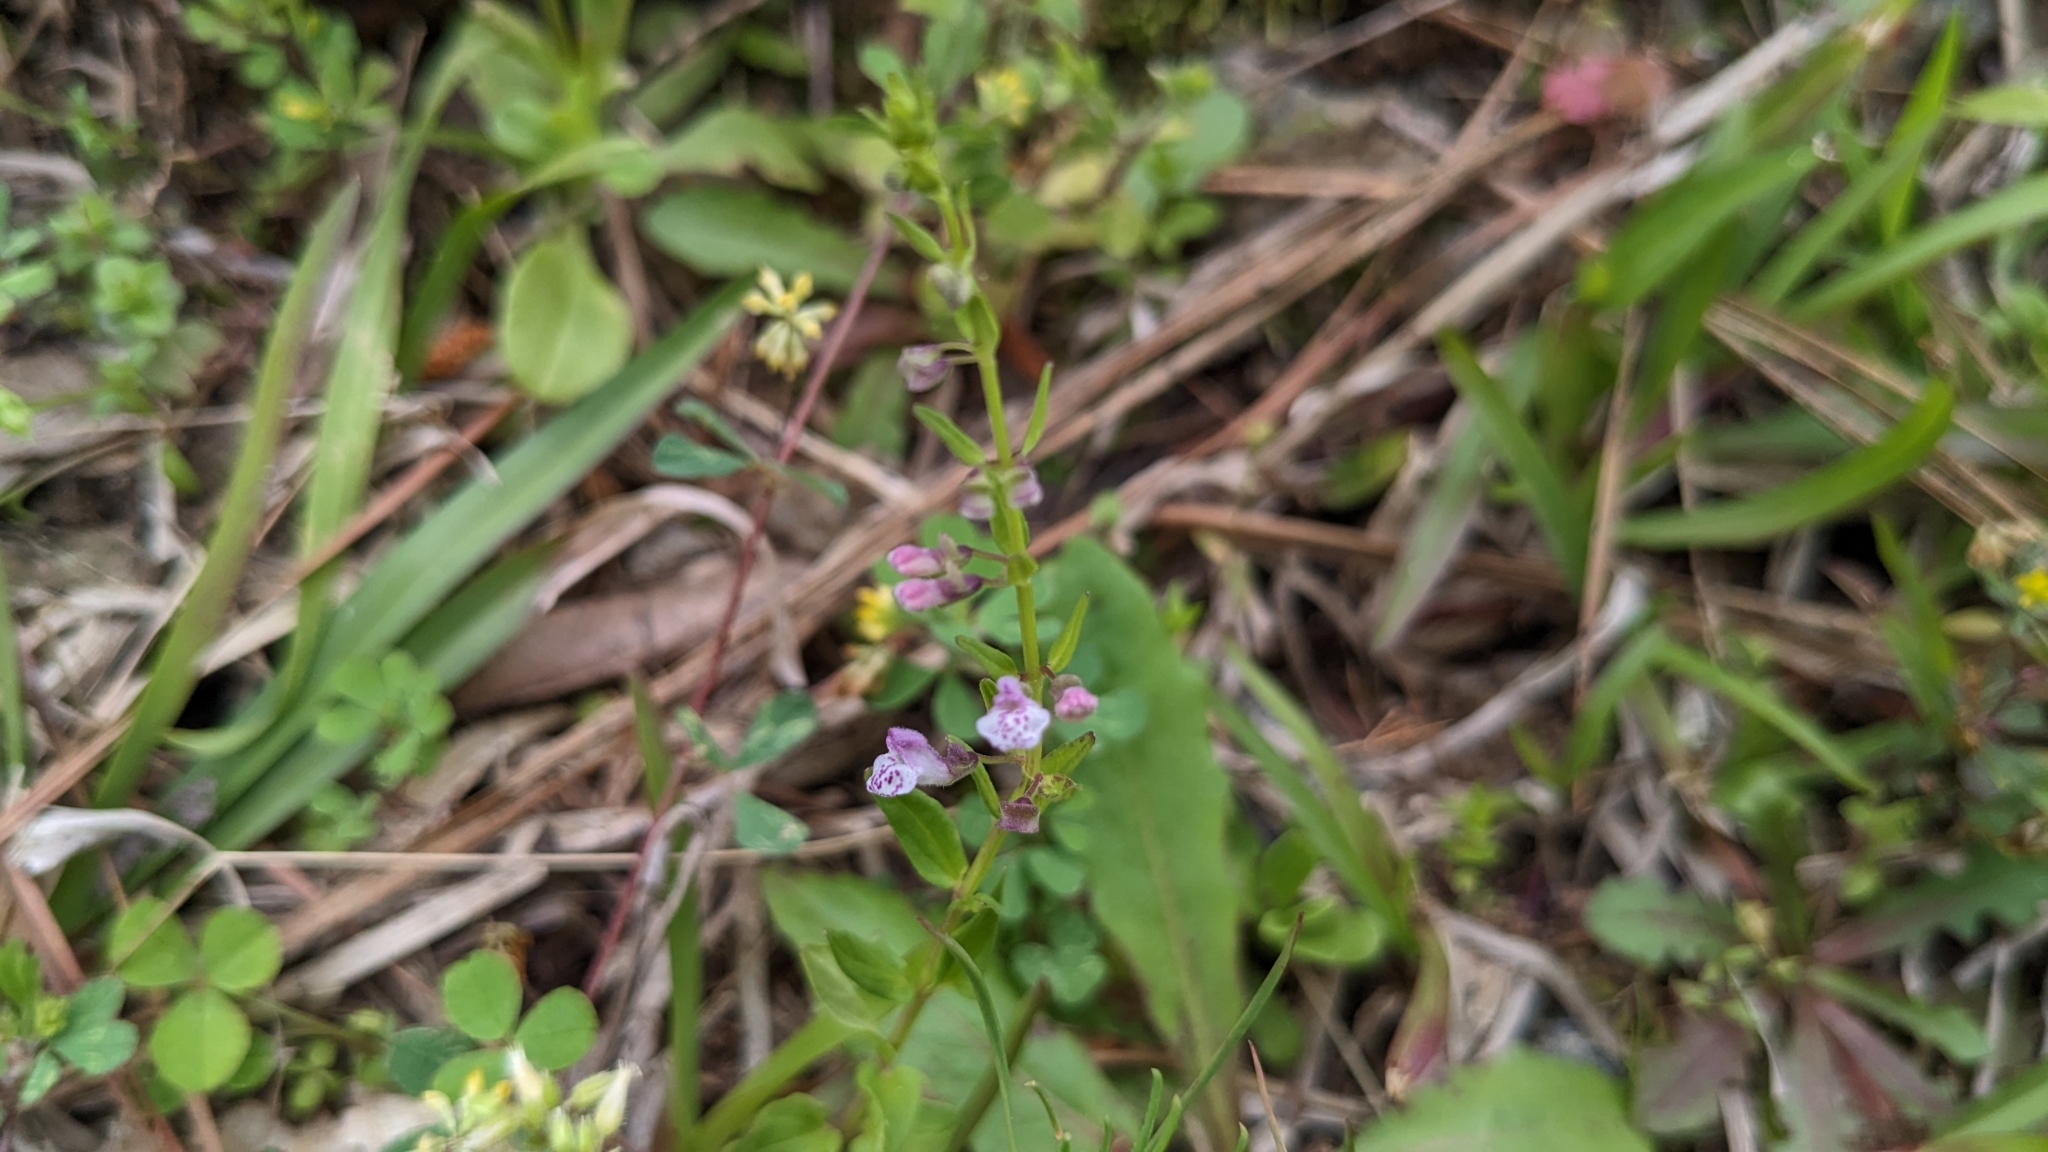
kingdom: Plantae
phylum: Tracheophyta
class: Magnoliopsida
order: Lamiales
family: Lamiaceae
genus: Scutellaria
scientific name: Scutellaria racemosa
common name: South american skullcap
